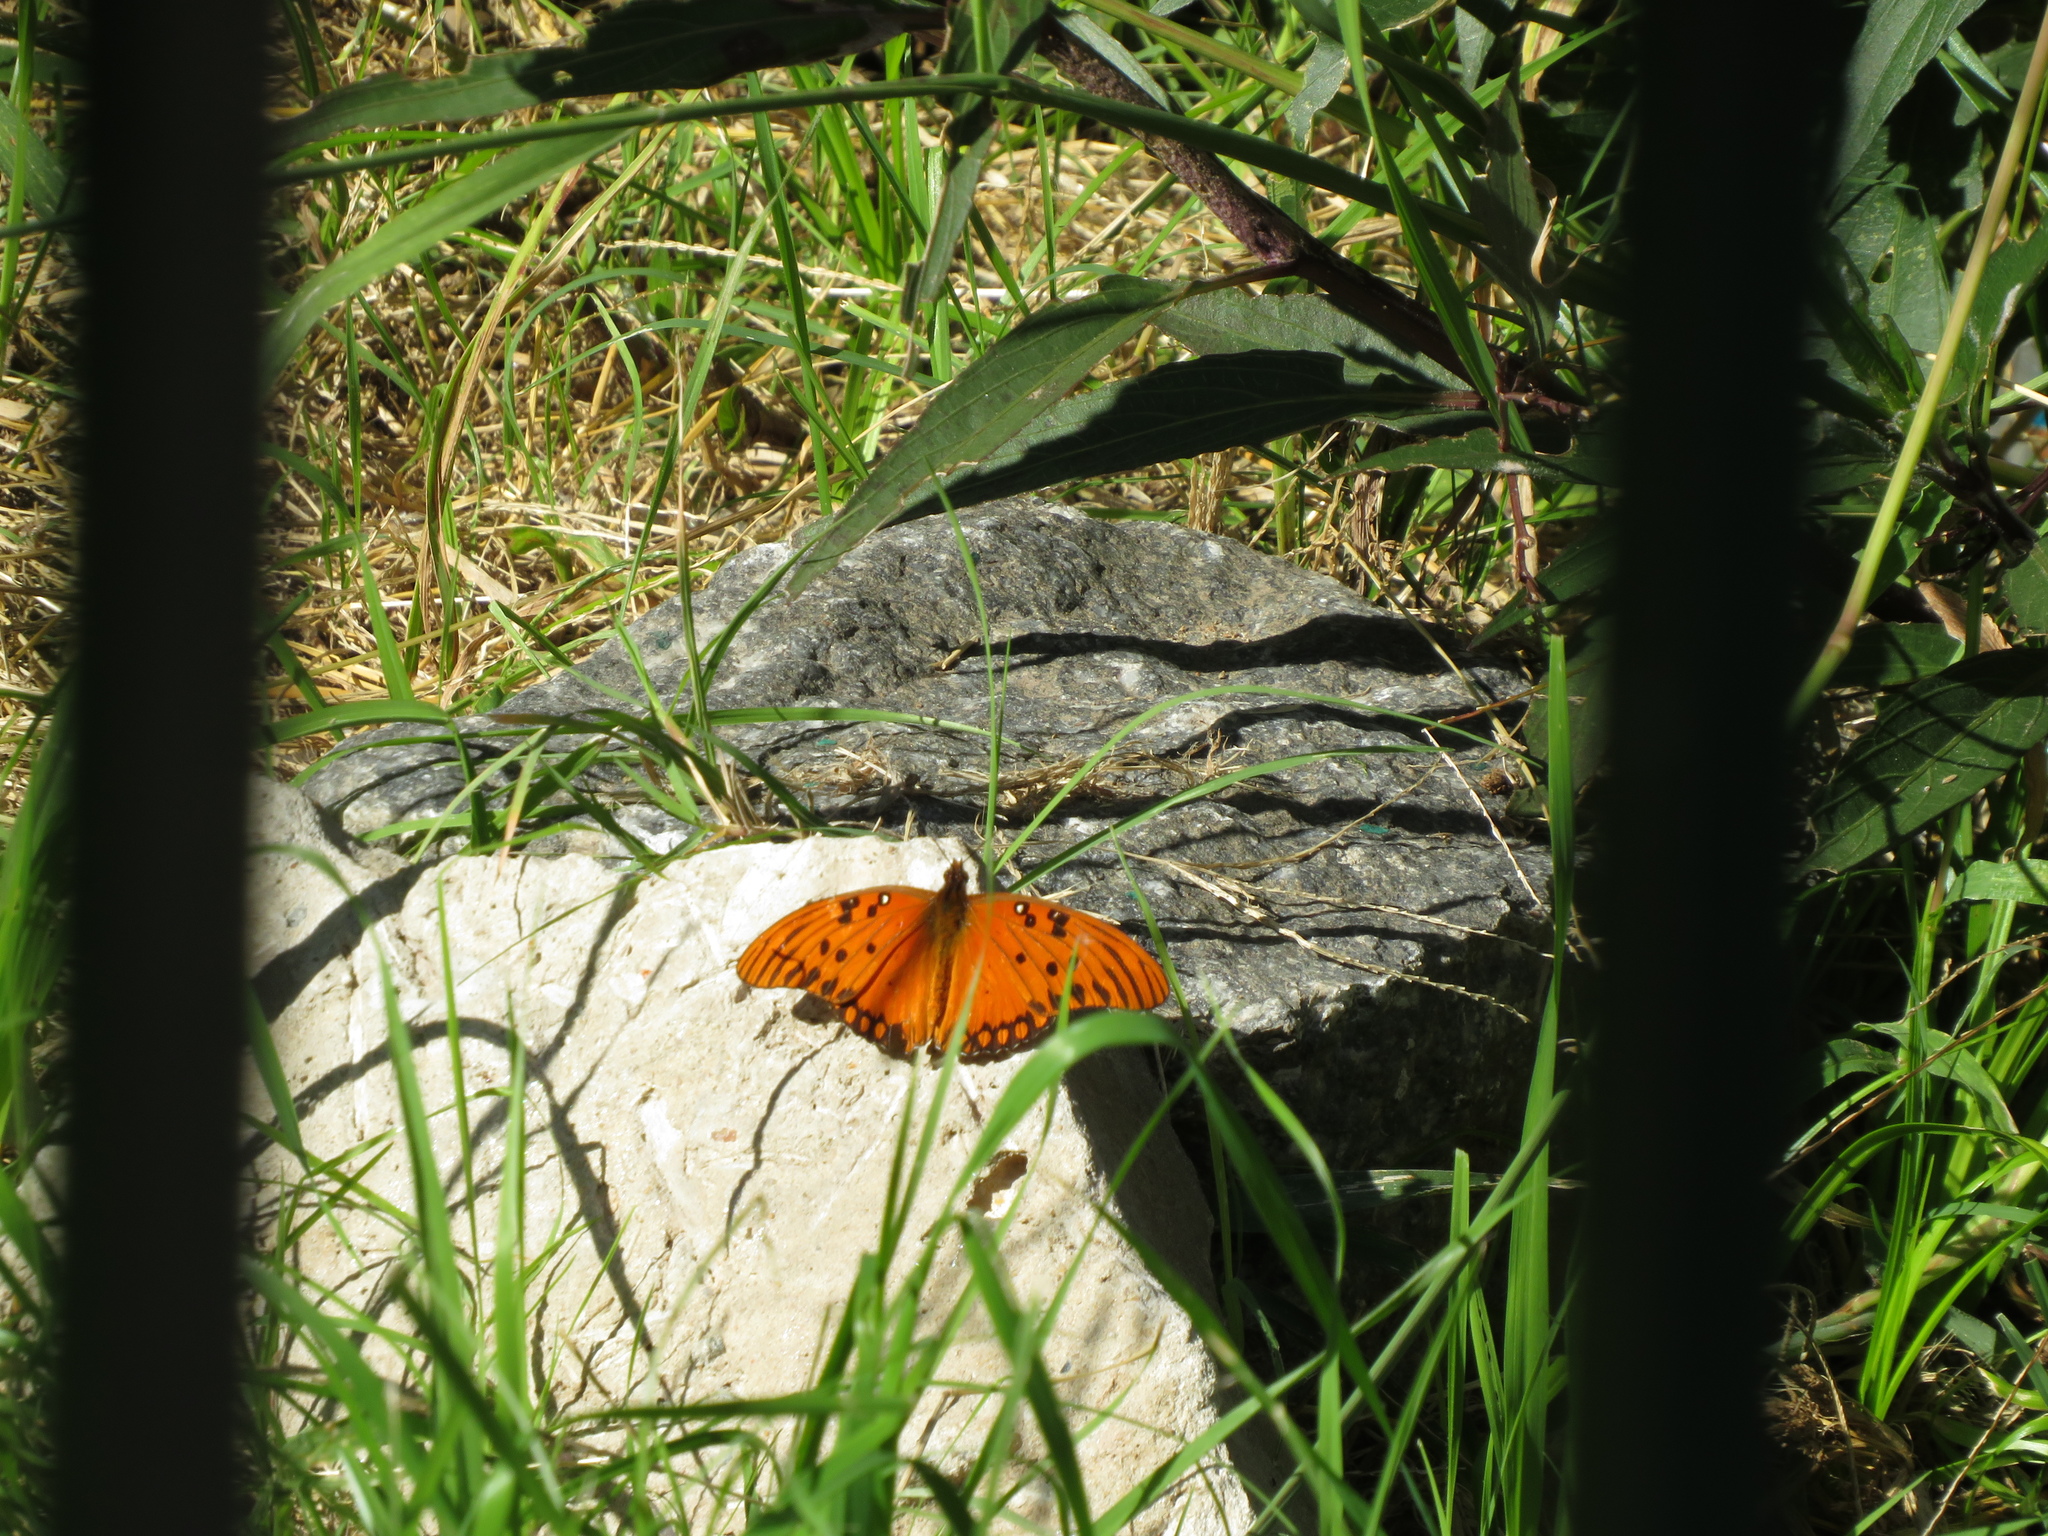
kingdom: Animalia
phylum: Arthropoda
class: Insecta
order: Lepidoptera
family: Nymphalidae
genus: Dione
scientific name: Dione vanillae
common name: Gulf fritillary
